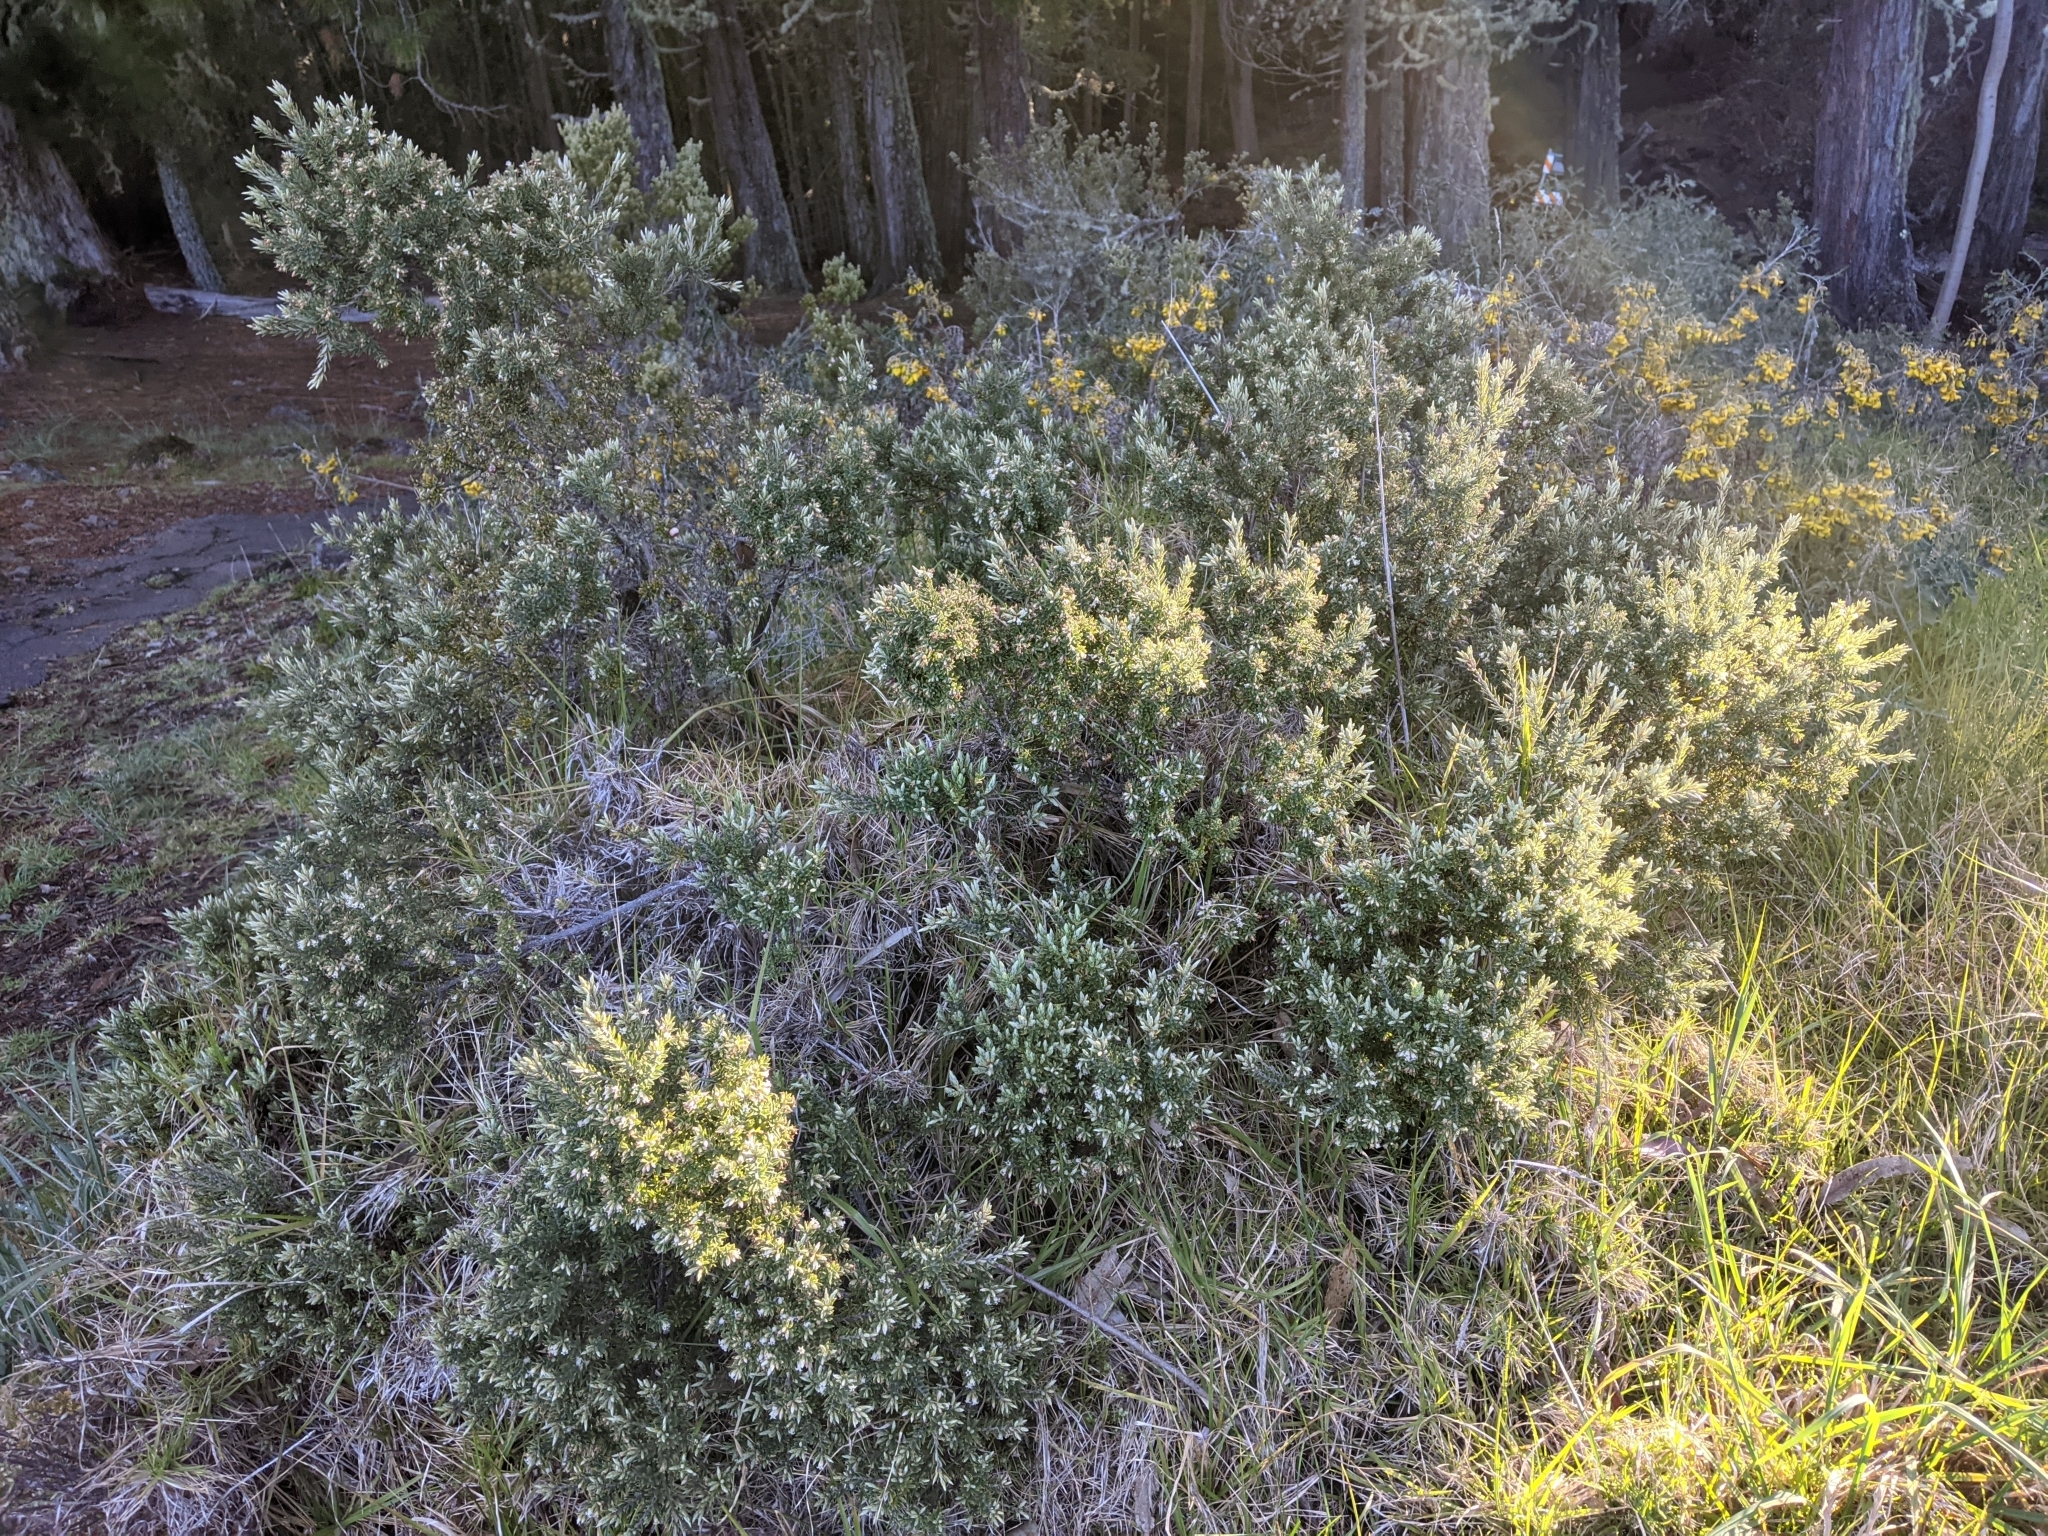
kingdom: Plantae
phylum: Tracheophyta
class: Magnoliopsida
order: Ericales
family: Ericaceae
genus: Leptecophylla
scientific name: Leptecophylla tameiameiae
